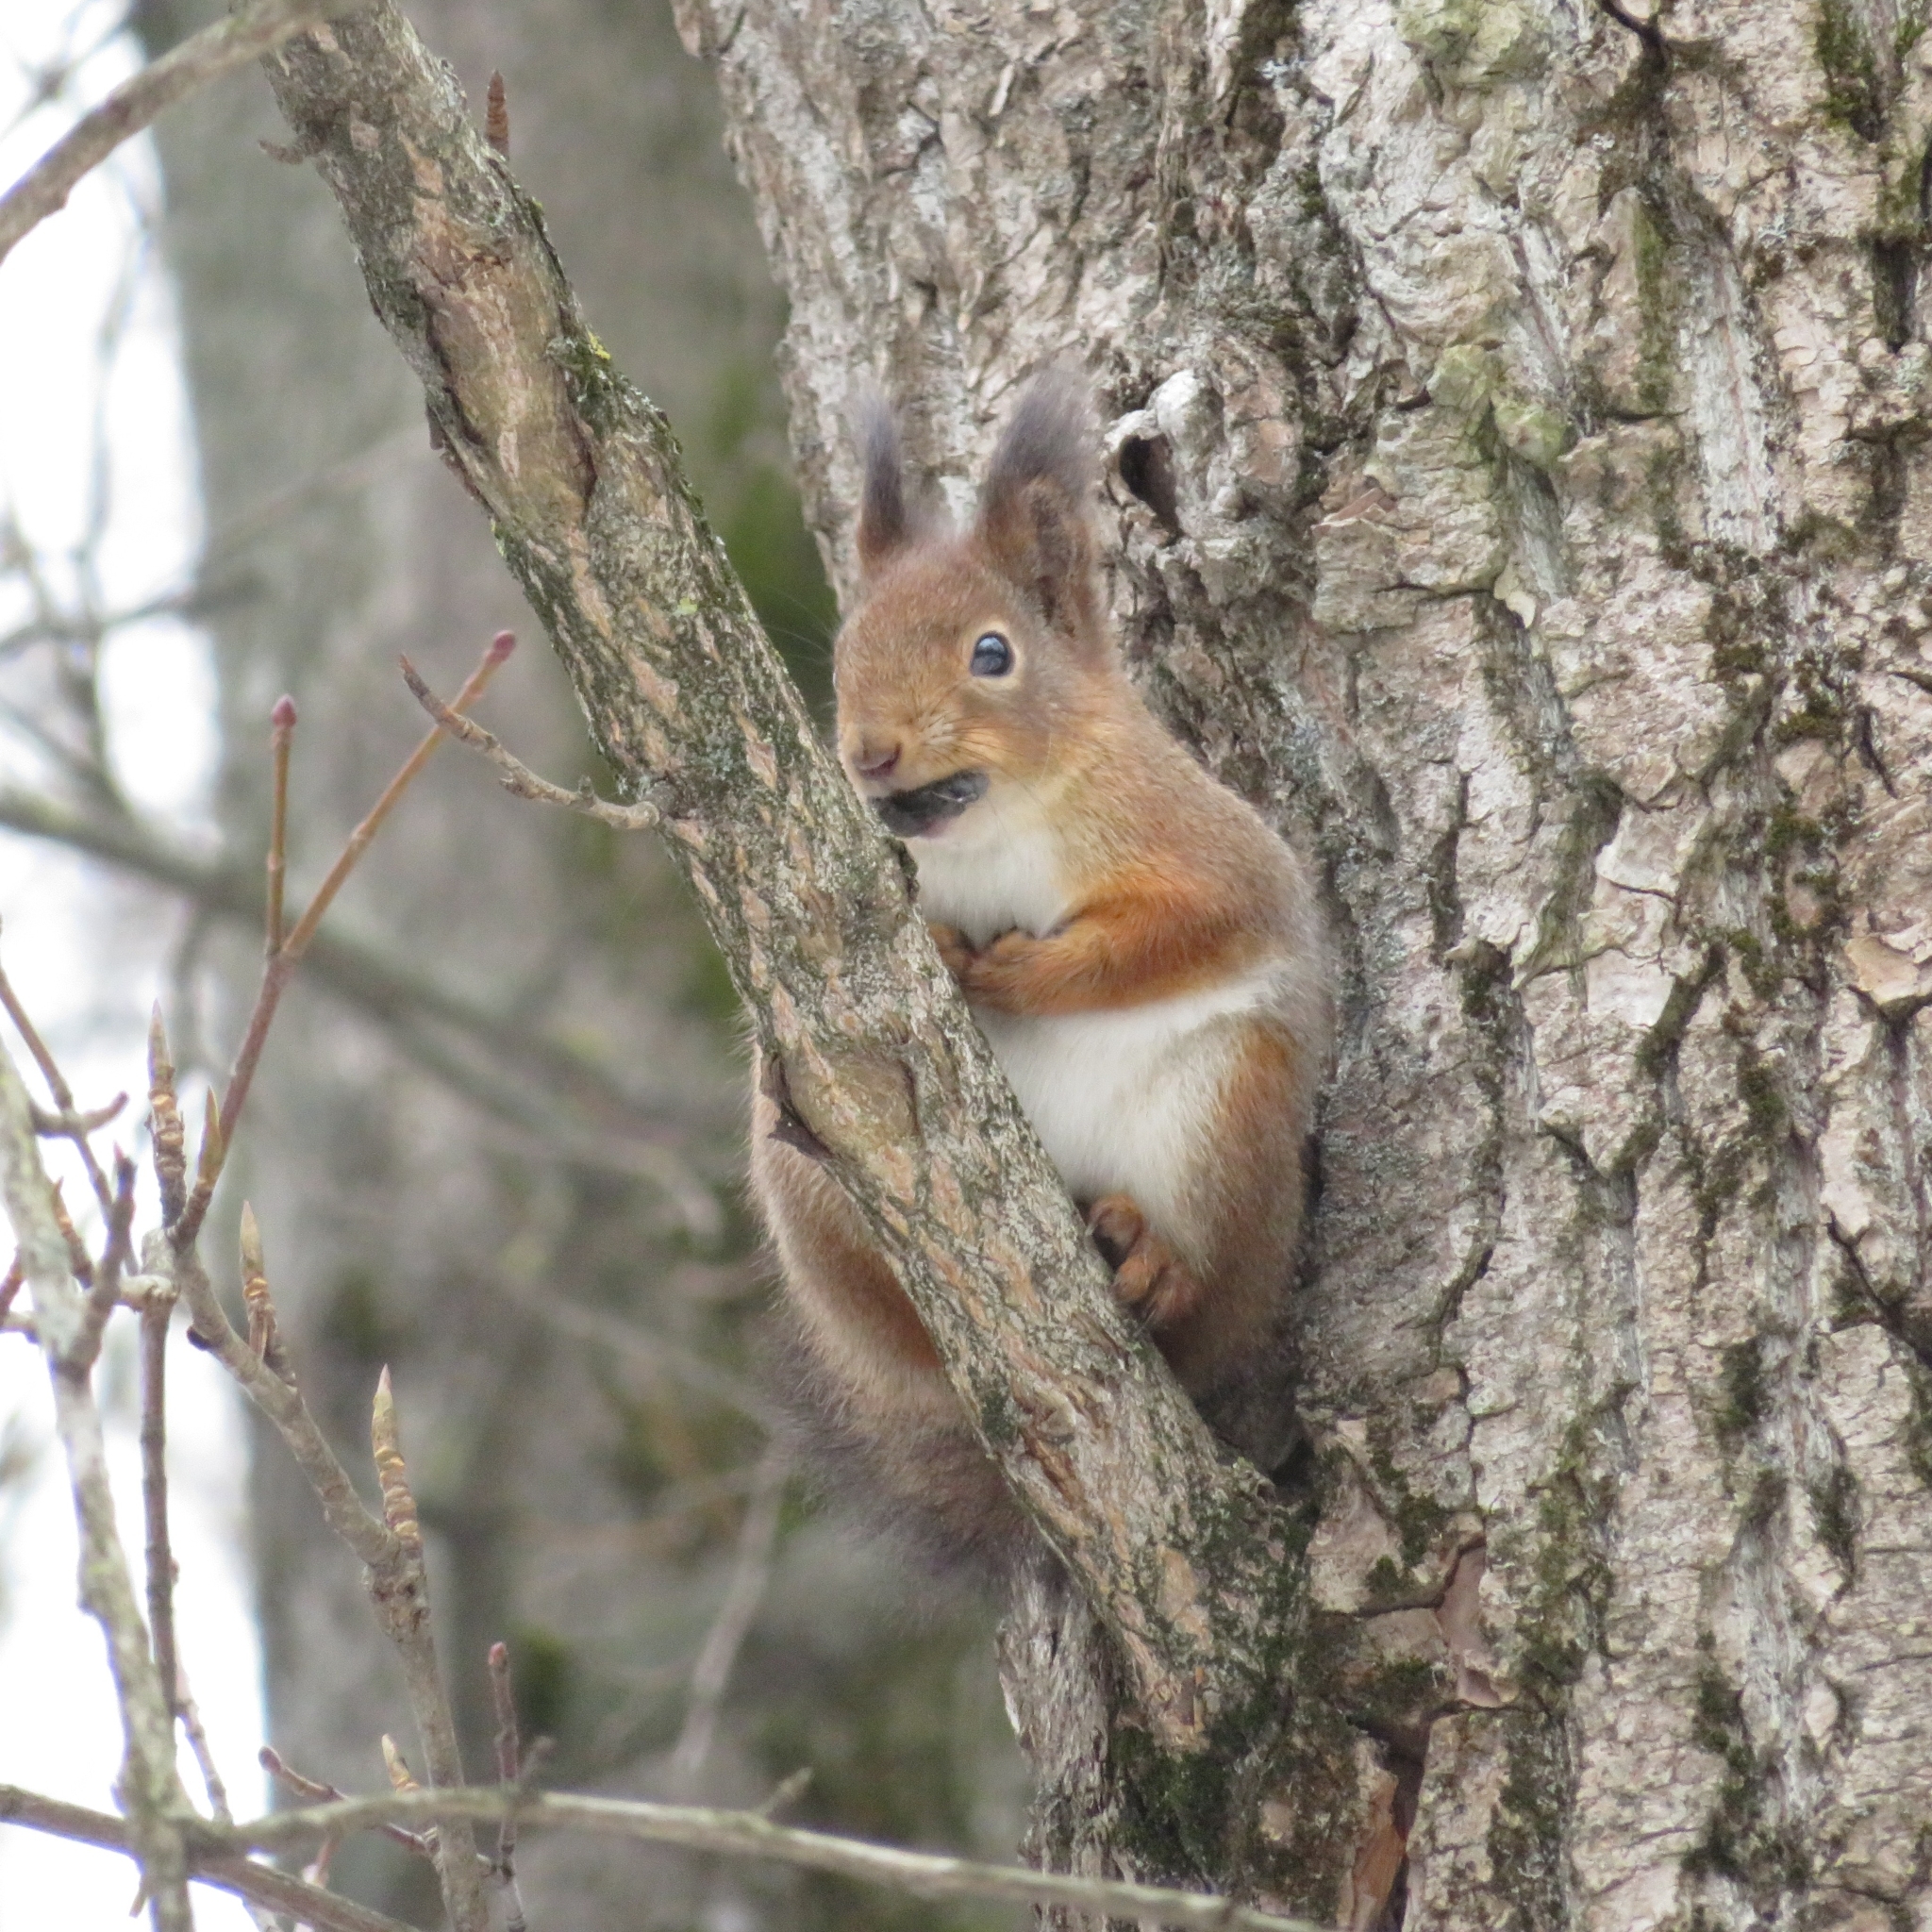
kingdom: Animalia
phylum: Chordata
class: Mammalia
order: Rodentia
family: Sciuridae
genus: Sciurus
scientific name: Sciurus vulgaris
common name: Eurasian red squirrel
